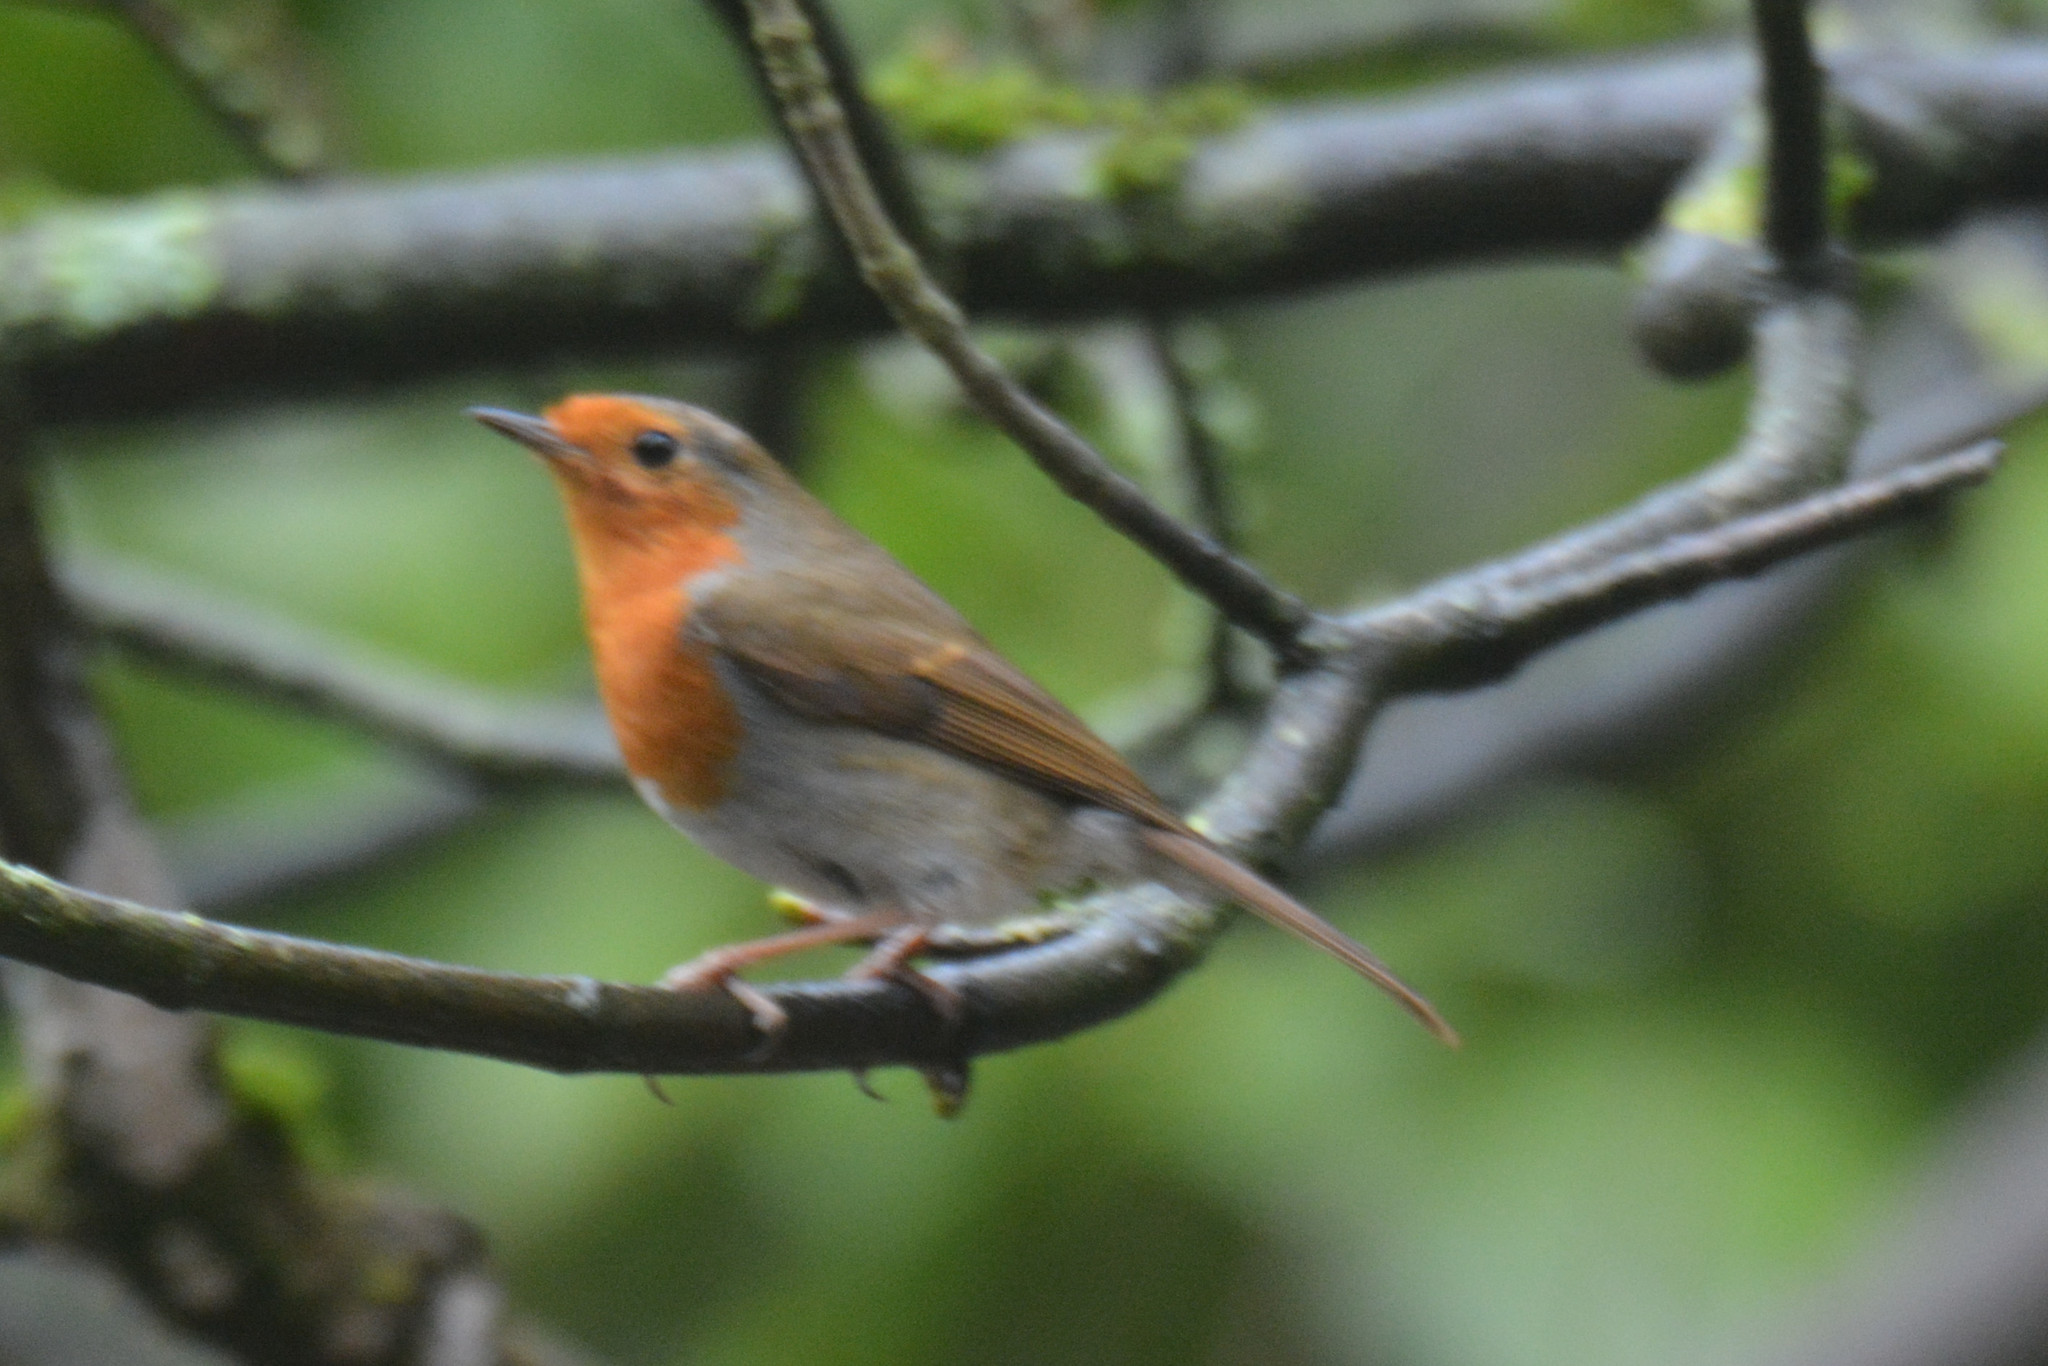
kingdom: Animalia
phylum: Chordata
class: Aves
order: Passeriformes
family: Muscicapidae
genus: Erithacus
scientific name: Erithacus rubecula
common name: European robin
